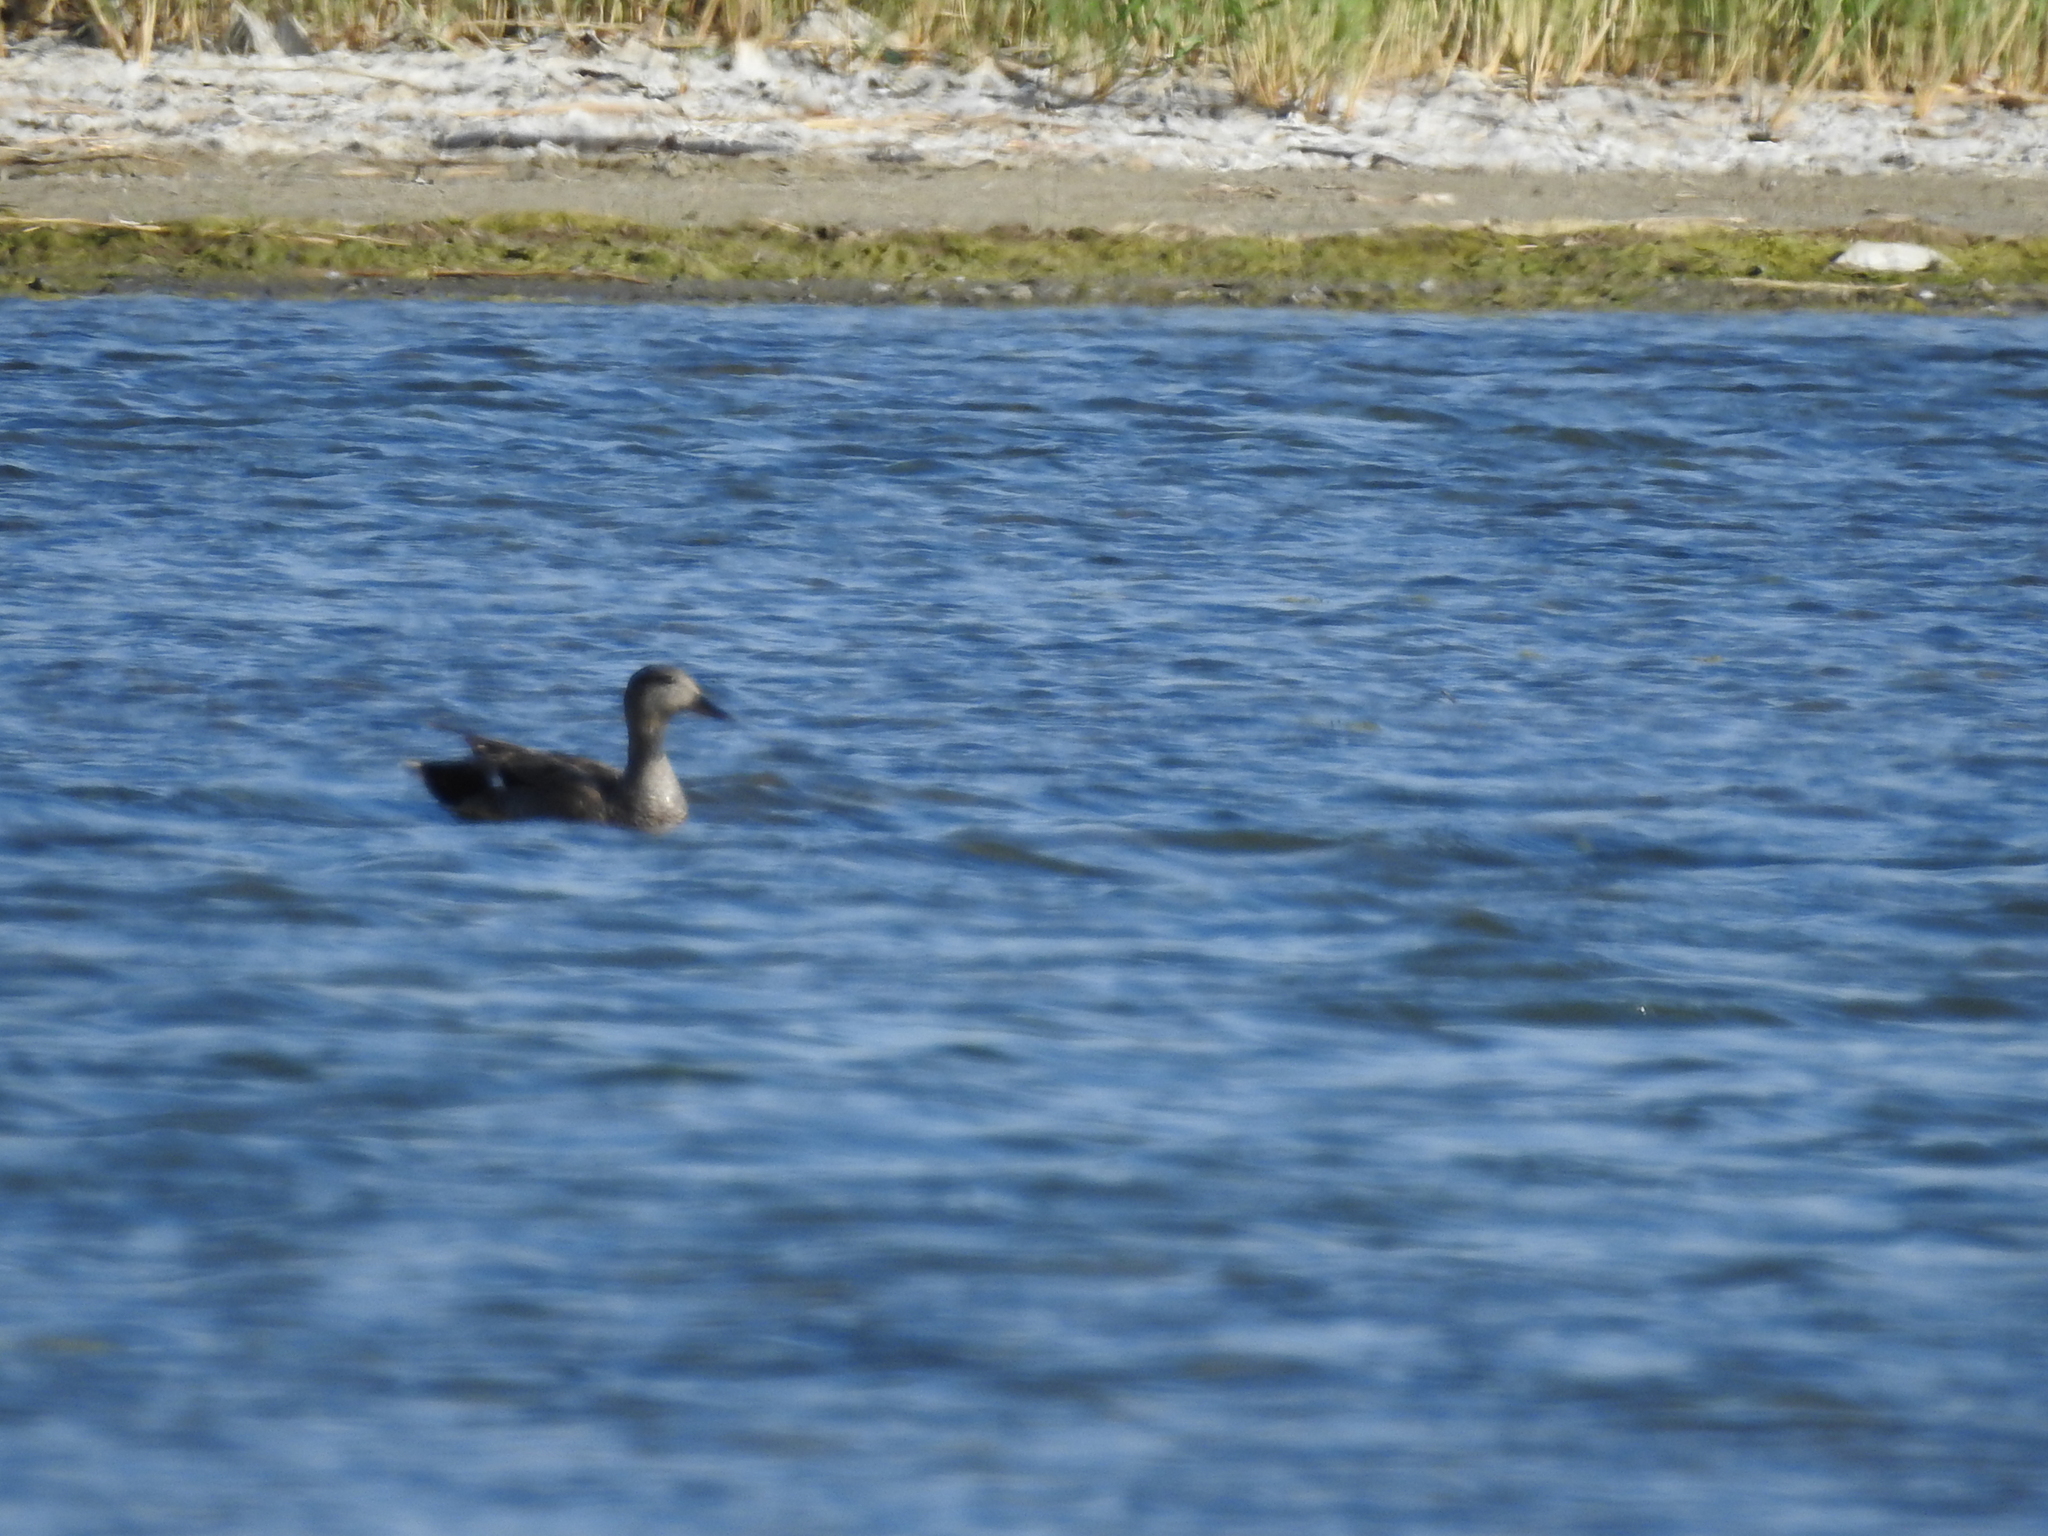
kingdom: Animalia
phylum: Chordata
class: Aves
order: Anseriformes
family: Anatidae
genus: Mareca
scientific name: Mareca strepera
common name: Gadwall
